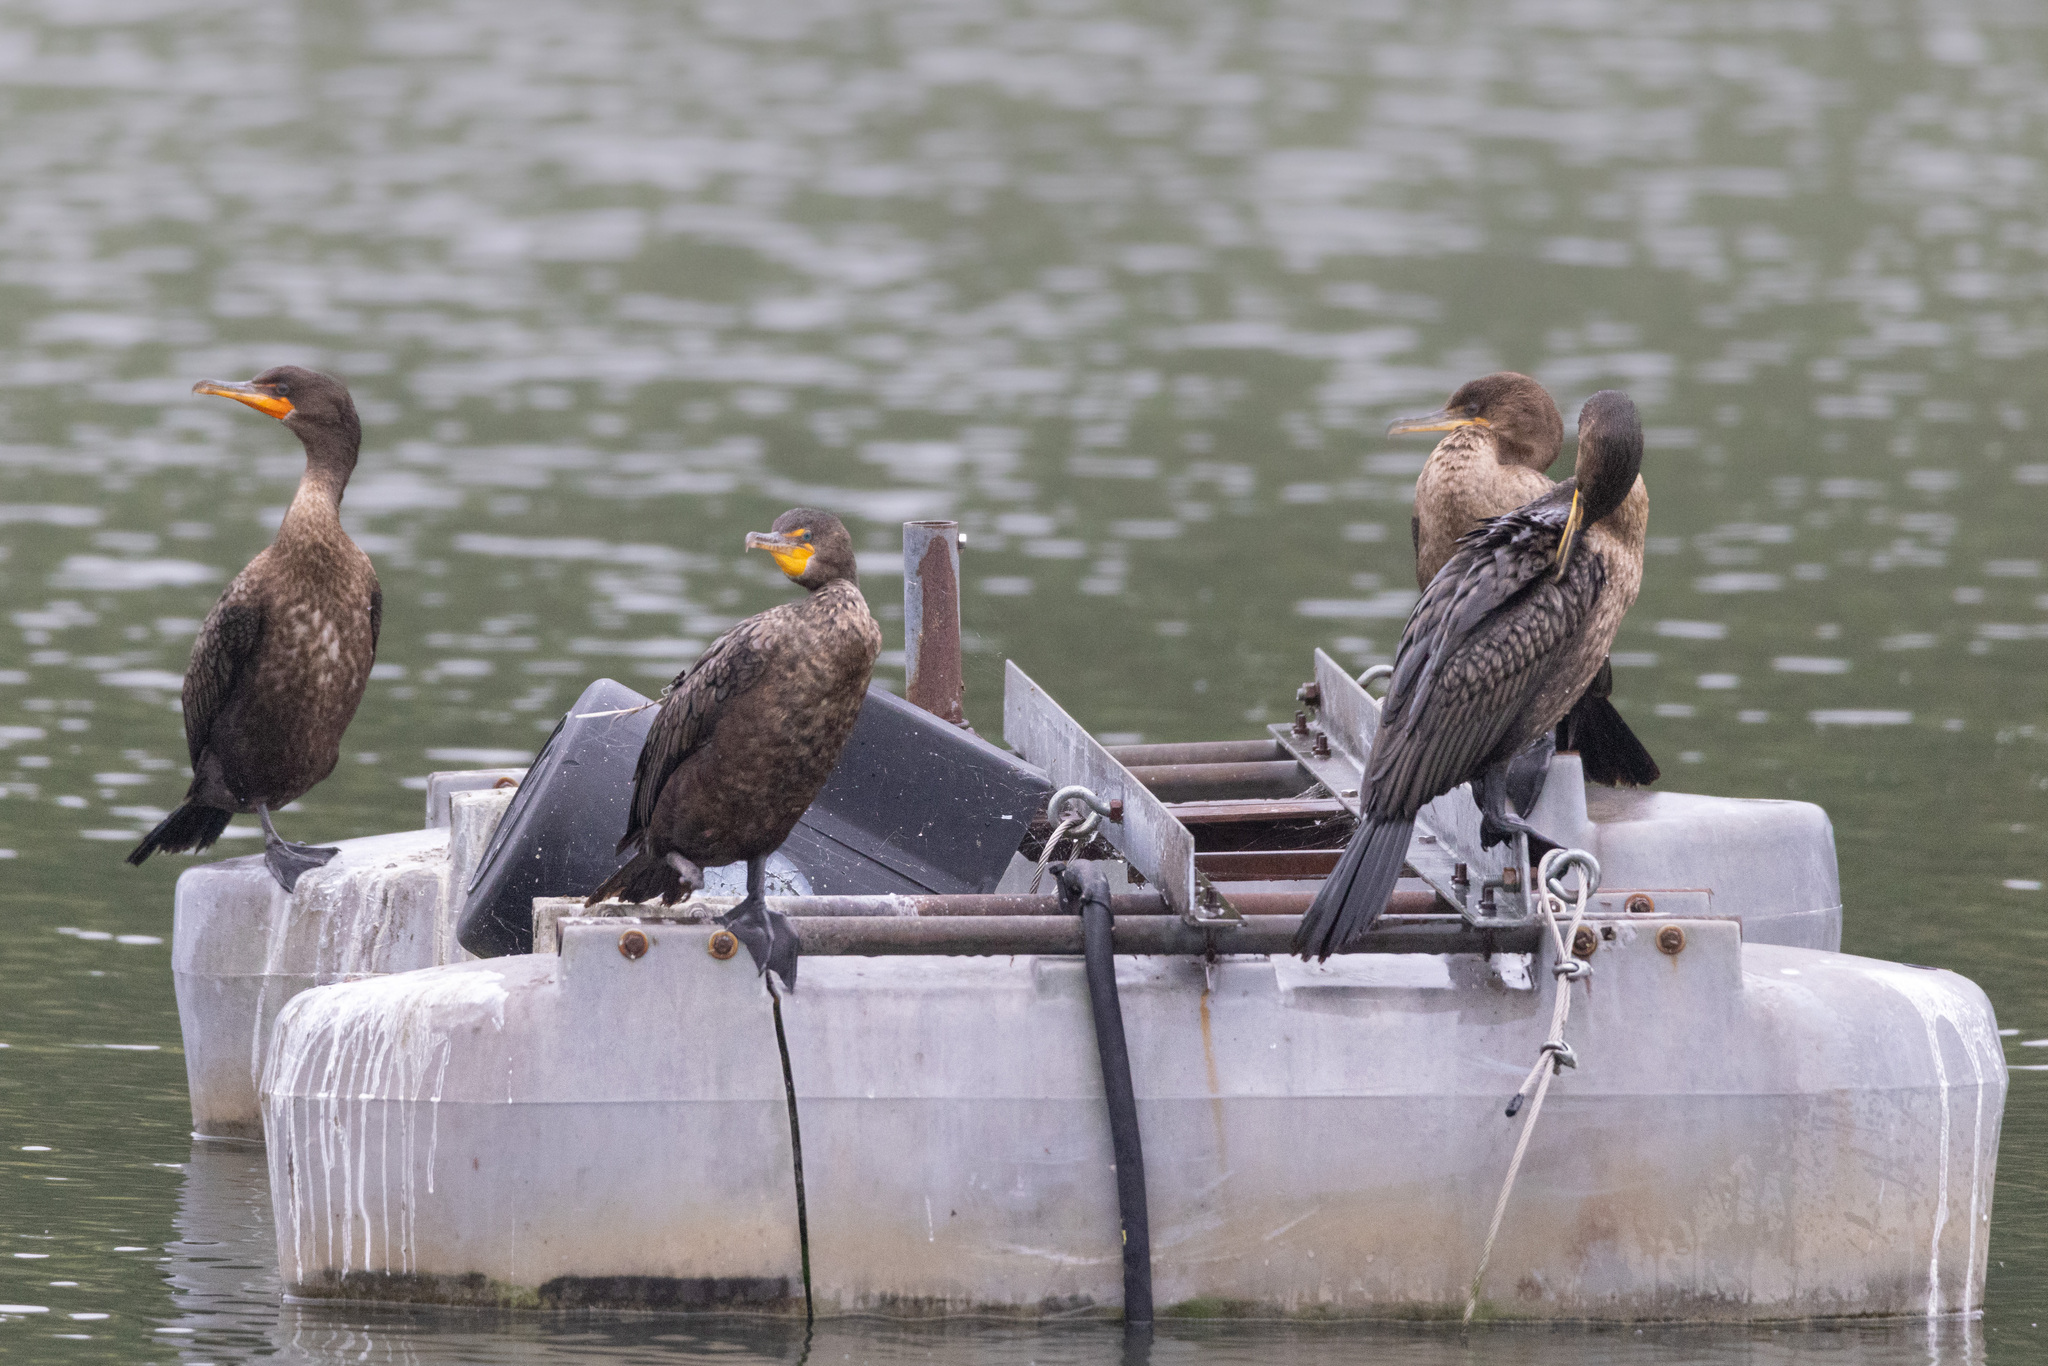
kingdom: Animalia
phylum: Chordata
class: Aves
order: Suliformes
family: Phalacrocoracidae
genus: Phalacrocorax
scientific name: Phalacrocorax auritus
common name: Double-crested cormorant
